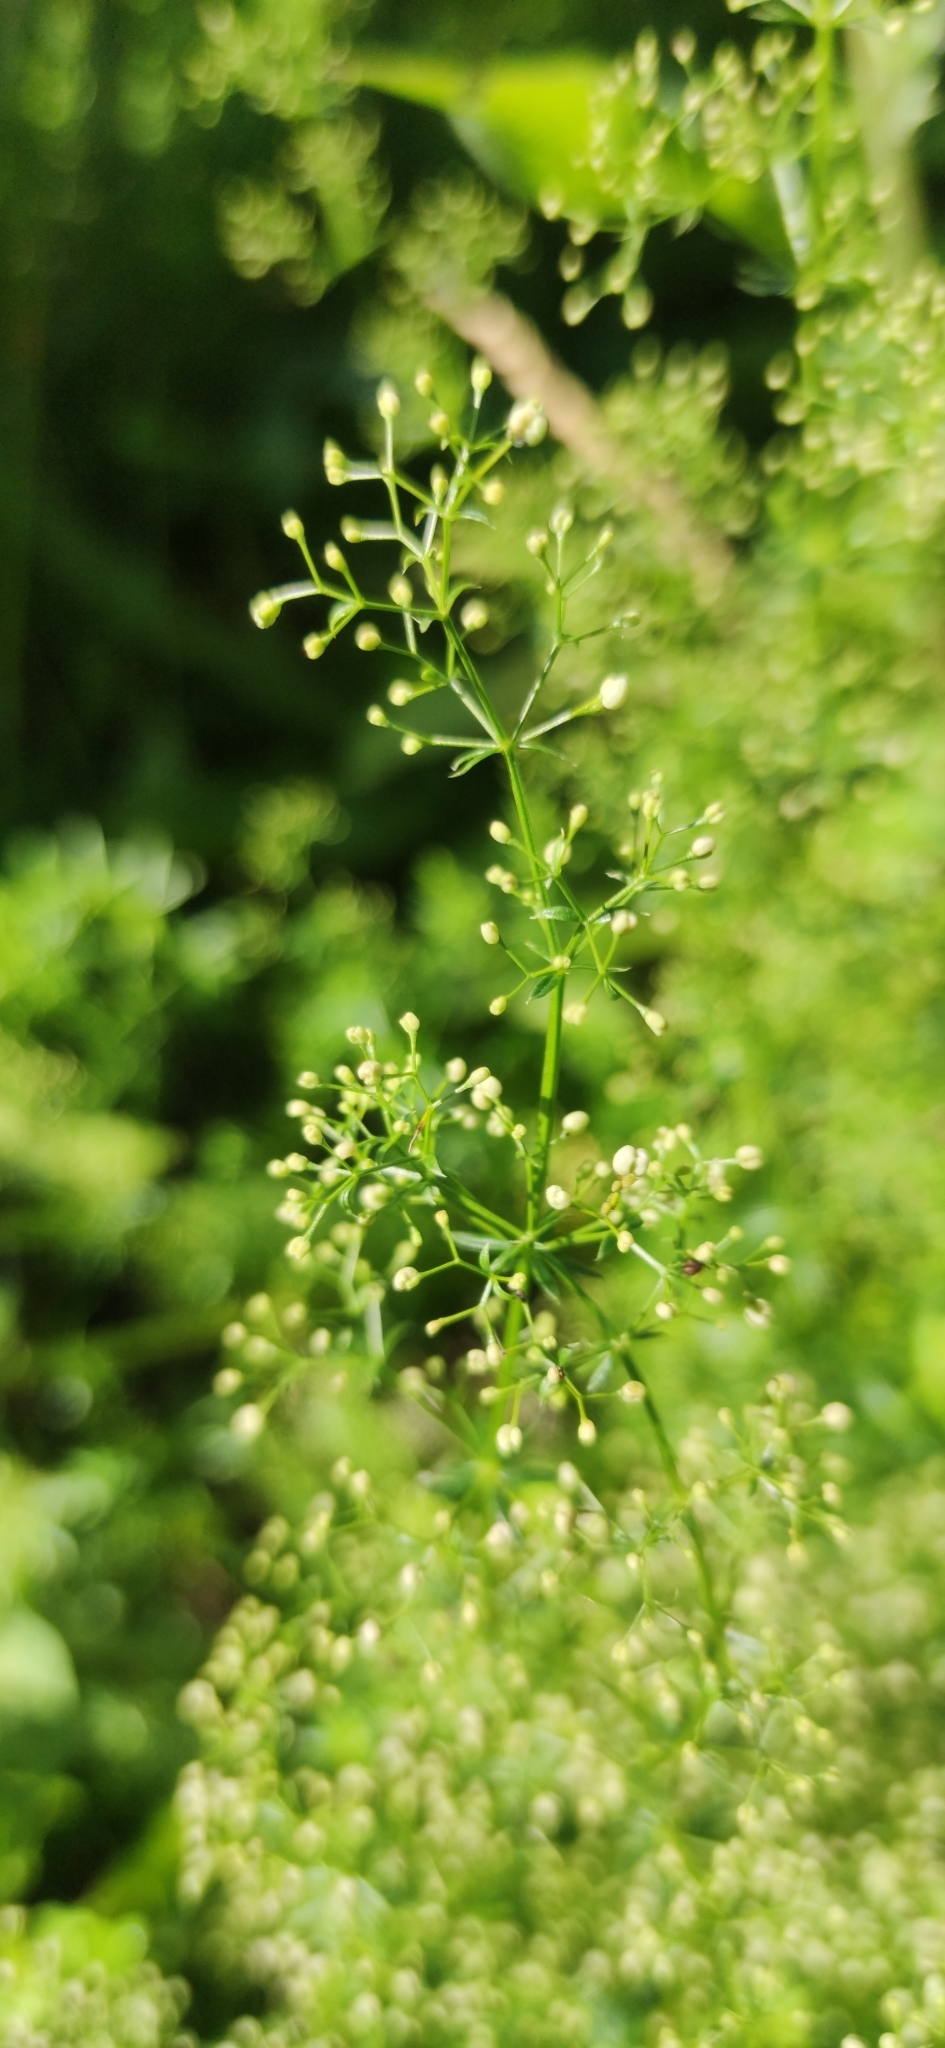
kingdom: Plantae
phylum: Tracheophyta
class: Magnoliopsida
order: Gentianales
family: Rubiaceae
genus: Galium
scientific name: Galium mollugo
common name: Hedge bedstraw
